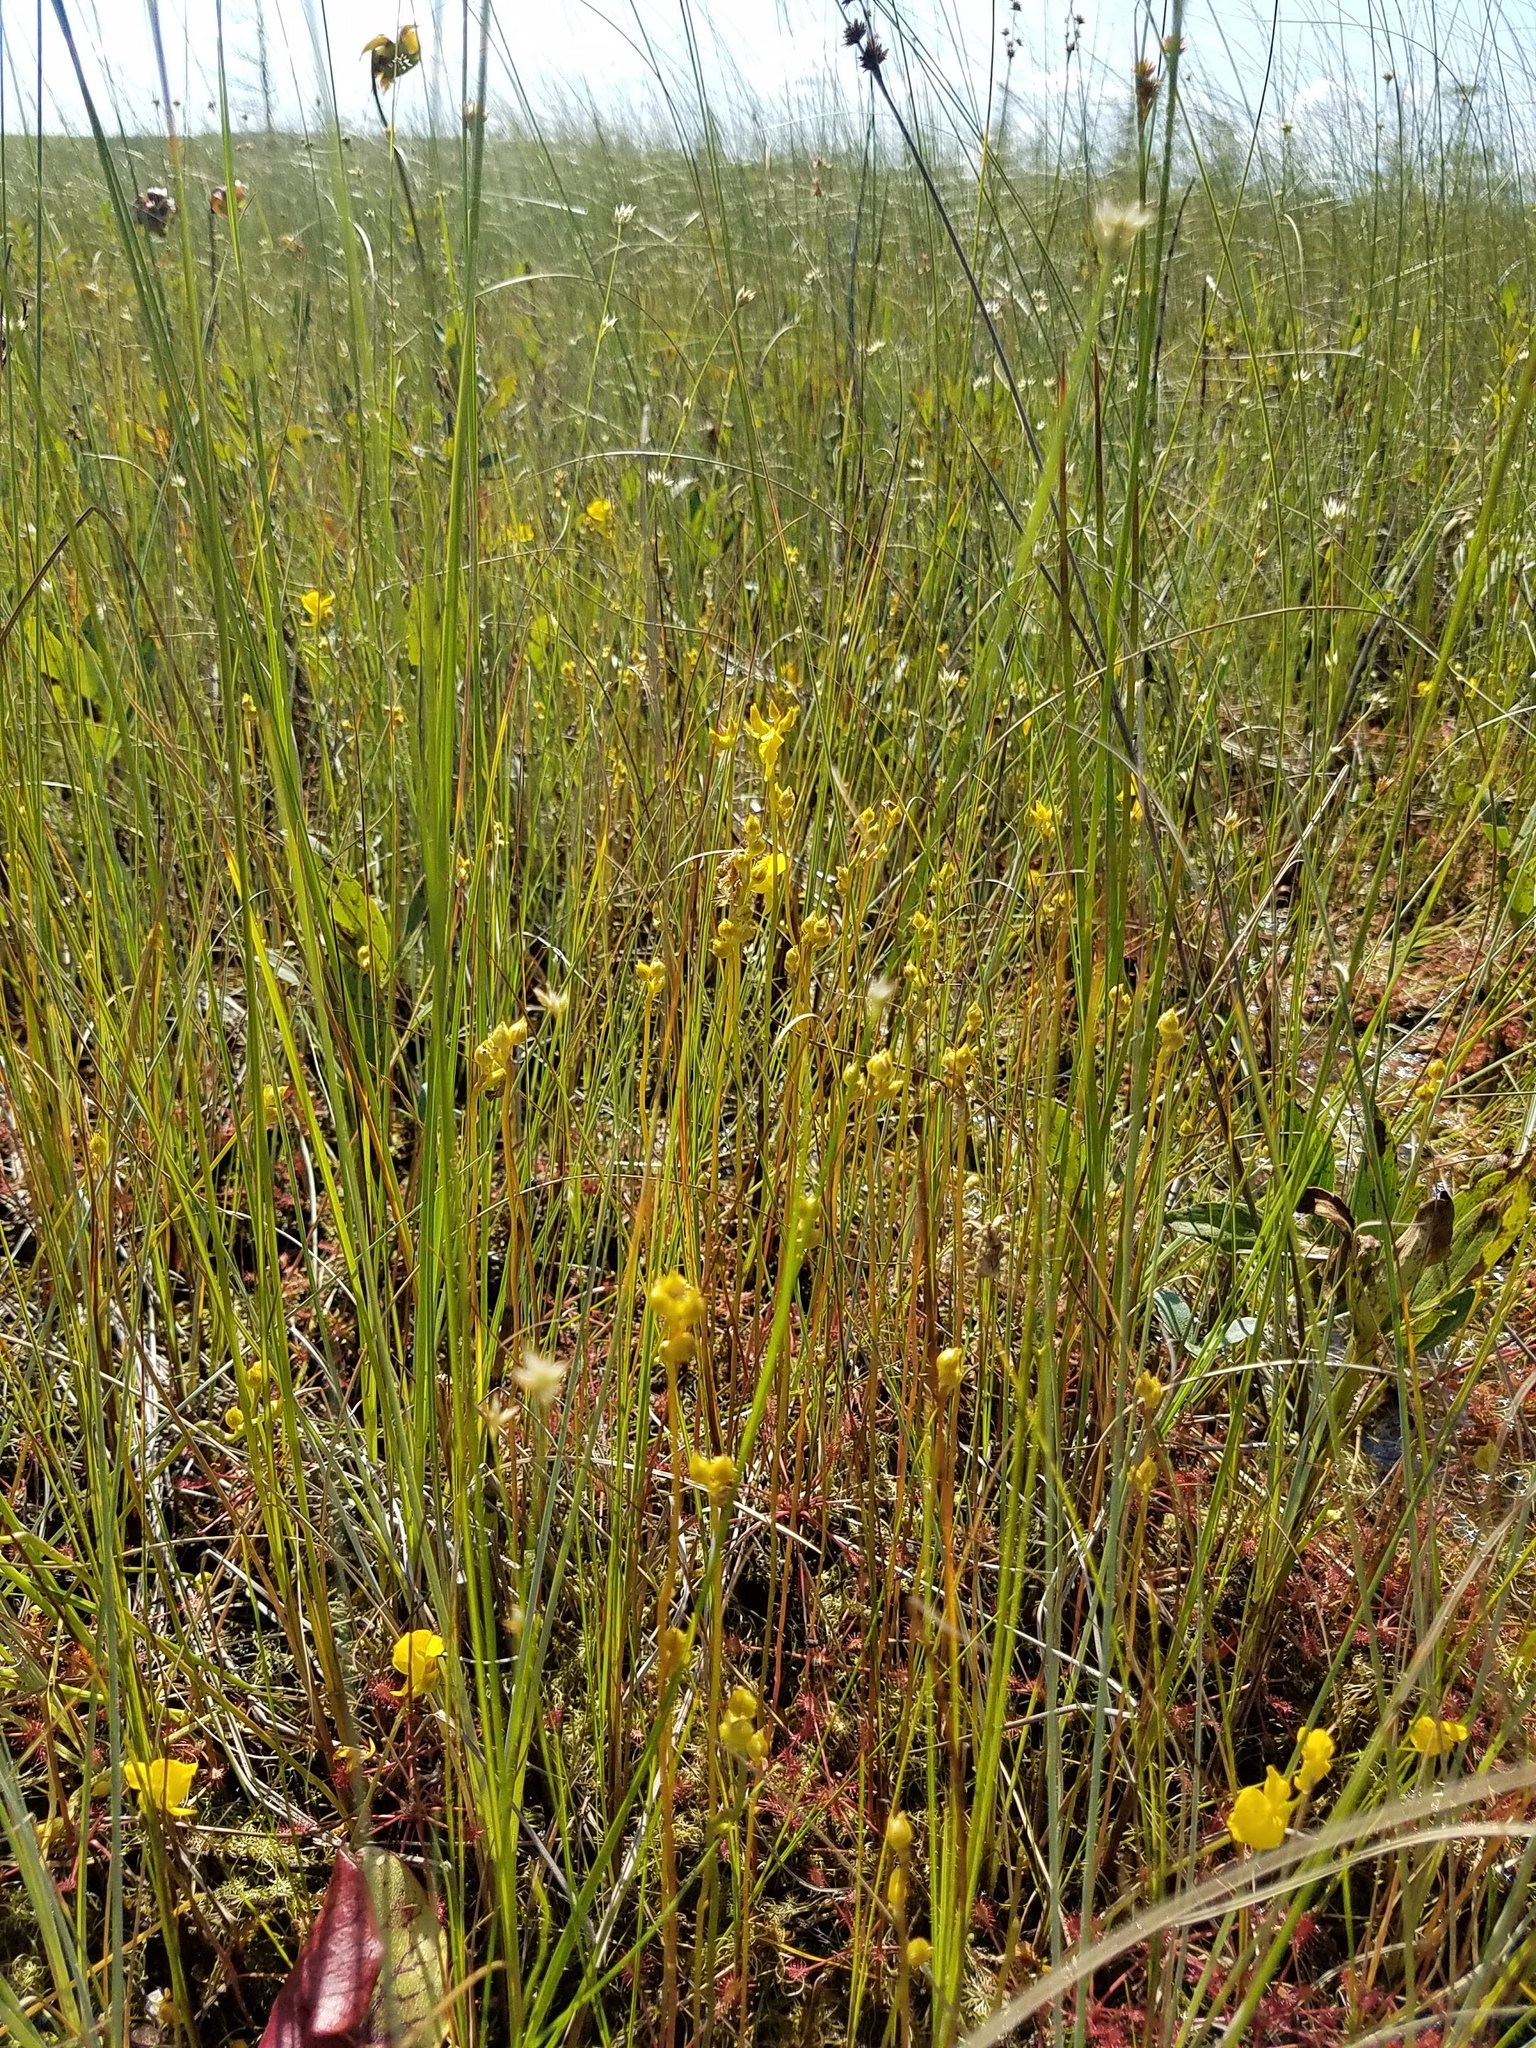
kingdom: Plantae
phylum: Tracheophyta
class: Magnoliopsida
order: Lamiales
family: Lentibulariaceae
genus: Utricularia
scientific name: Utricularia cornuta
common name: Horned bladderwort
